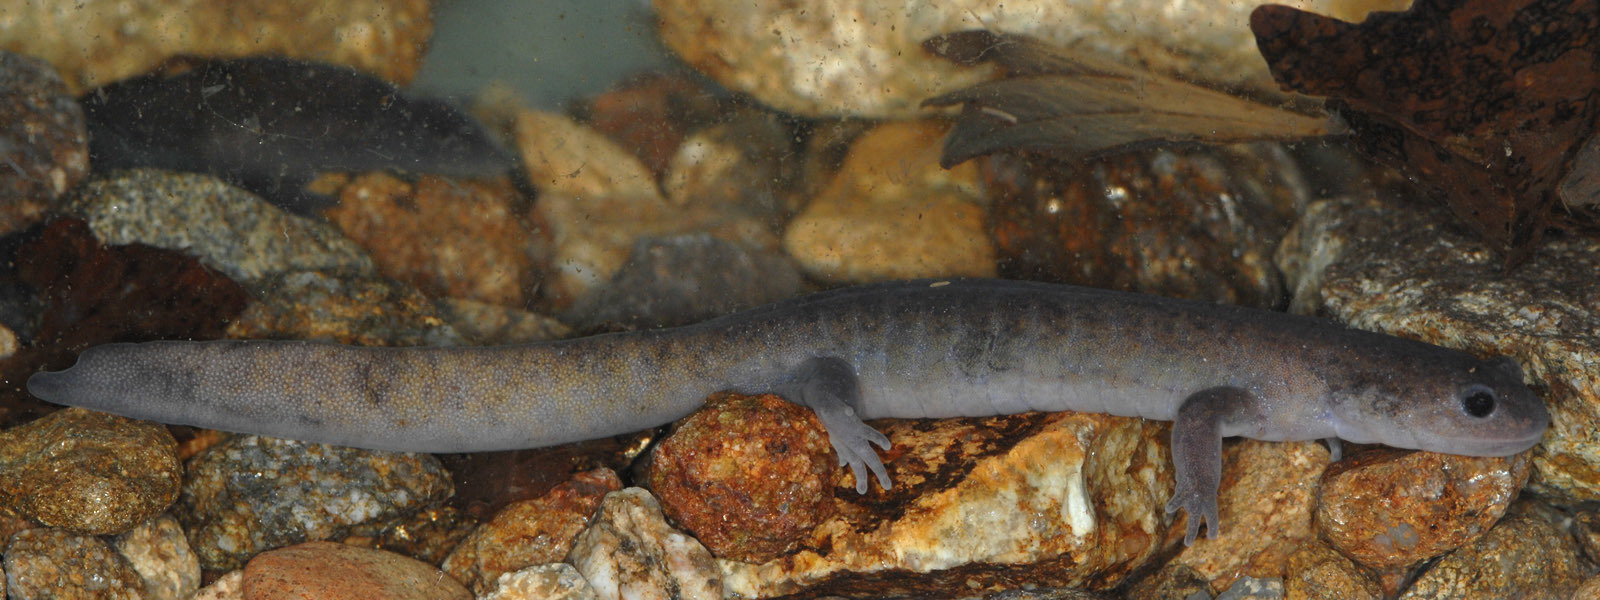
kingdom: Animalia
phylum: Chordata
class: Amphibia
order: Caudata
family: Hynobiidae
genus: Hynobius
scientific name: Hynobius yangi
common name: Yangi salamander
